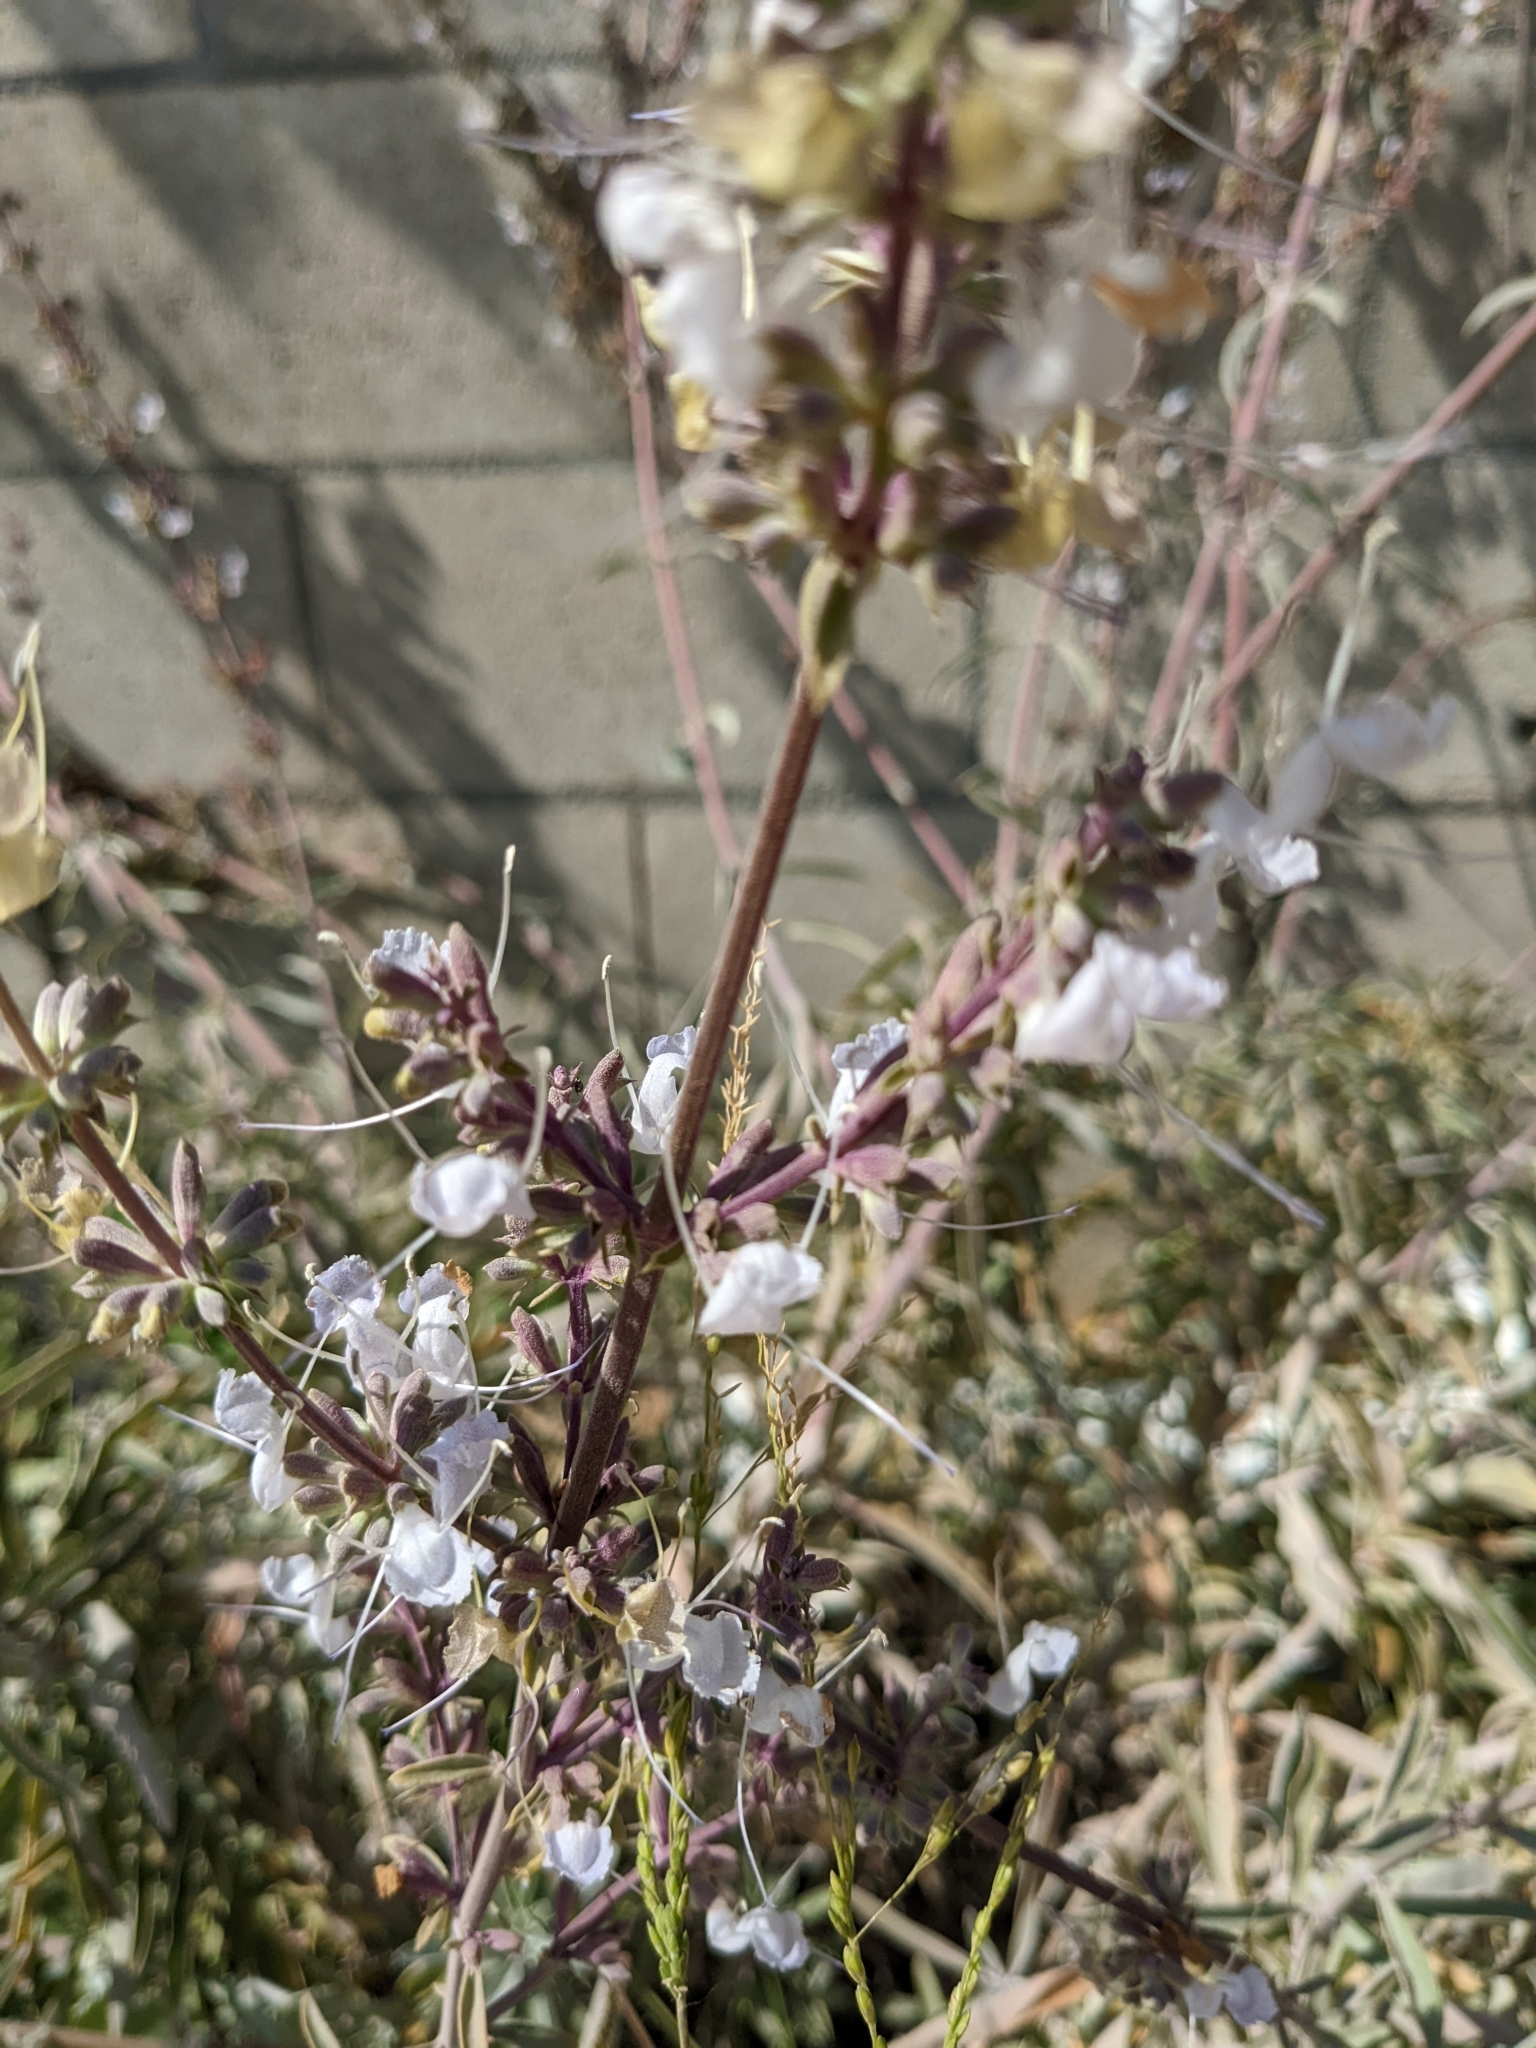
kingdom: Plantae
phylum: Tracheophyta
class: Magnoliopsida
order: Lamiales
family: Lamiaceae
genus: Salvia
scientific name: Salvia apiana
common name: White sage
